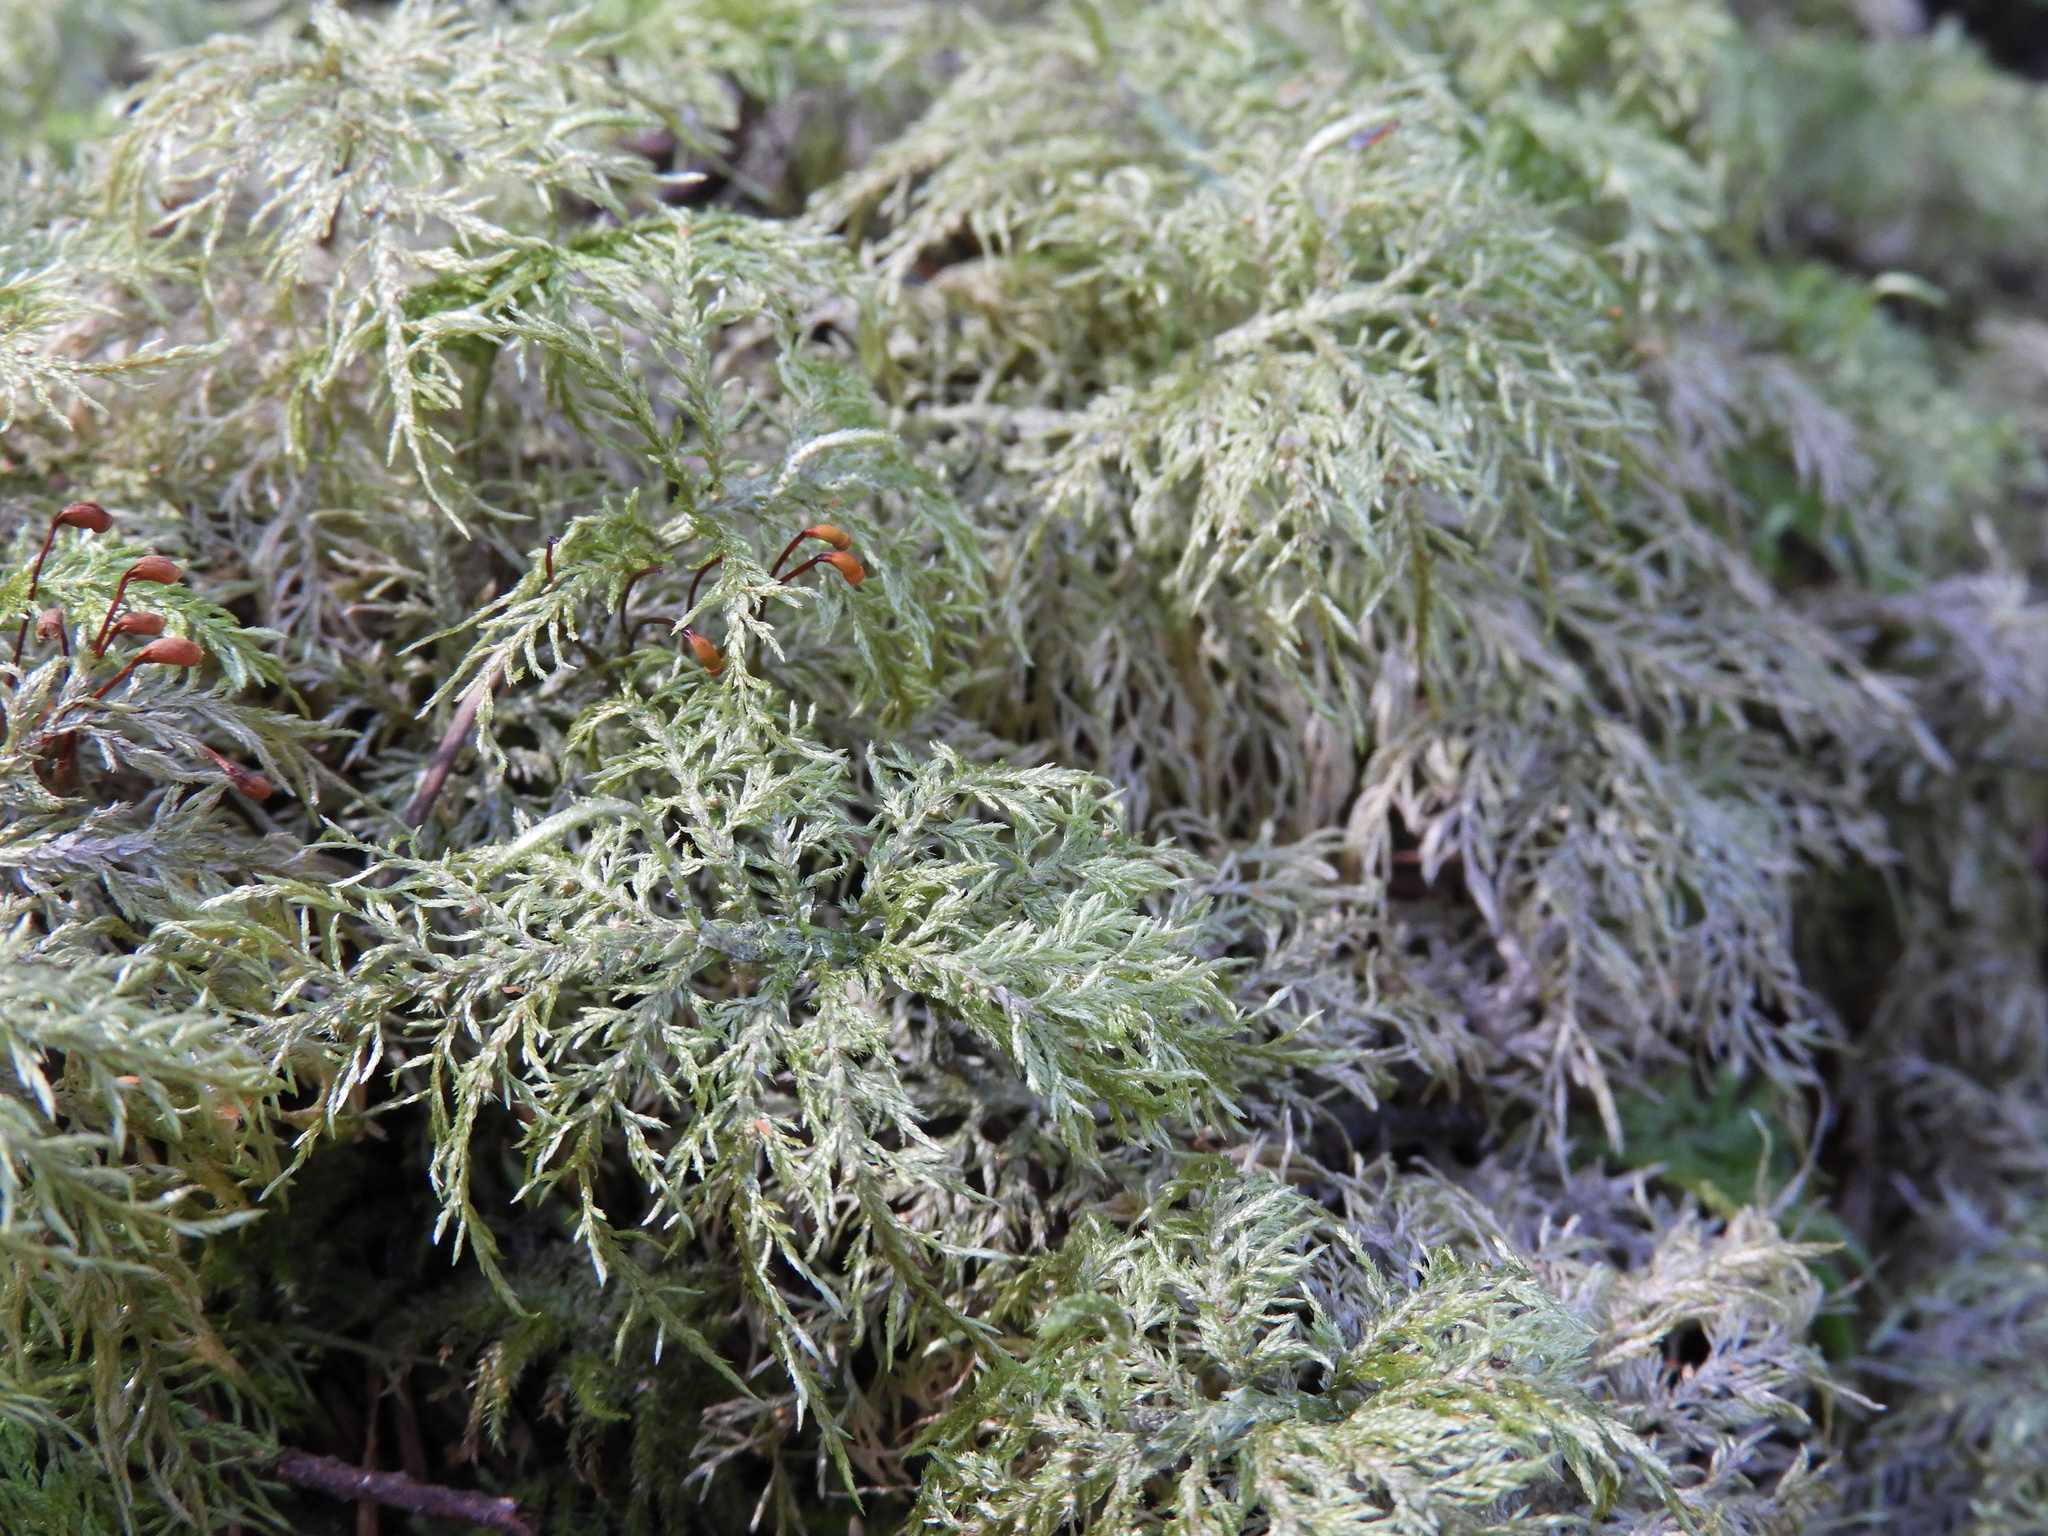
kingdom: Plantae
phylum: Bryophyta
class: Bryopsida
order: Hypnales
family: Hylocomiaceae
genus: Hylocomium
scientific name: Hylocomium splendens
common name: Stairstep moss
